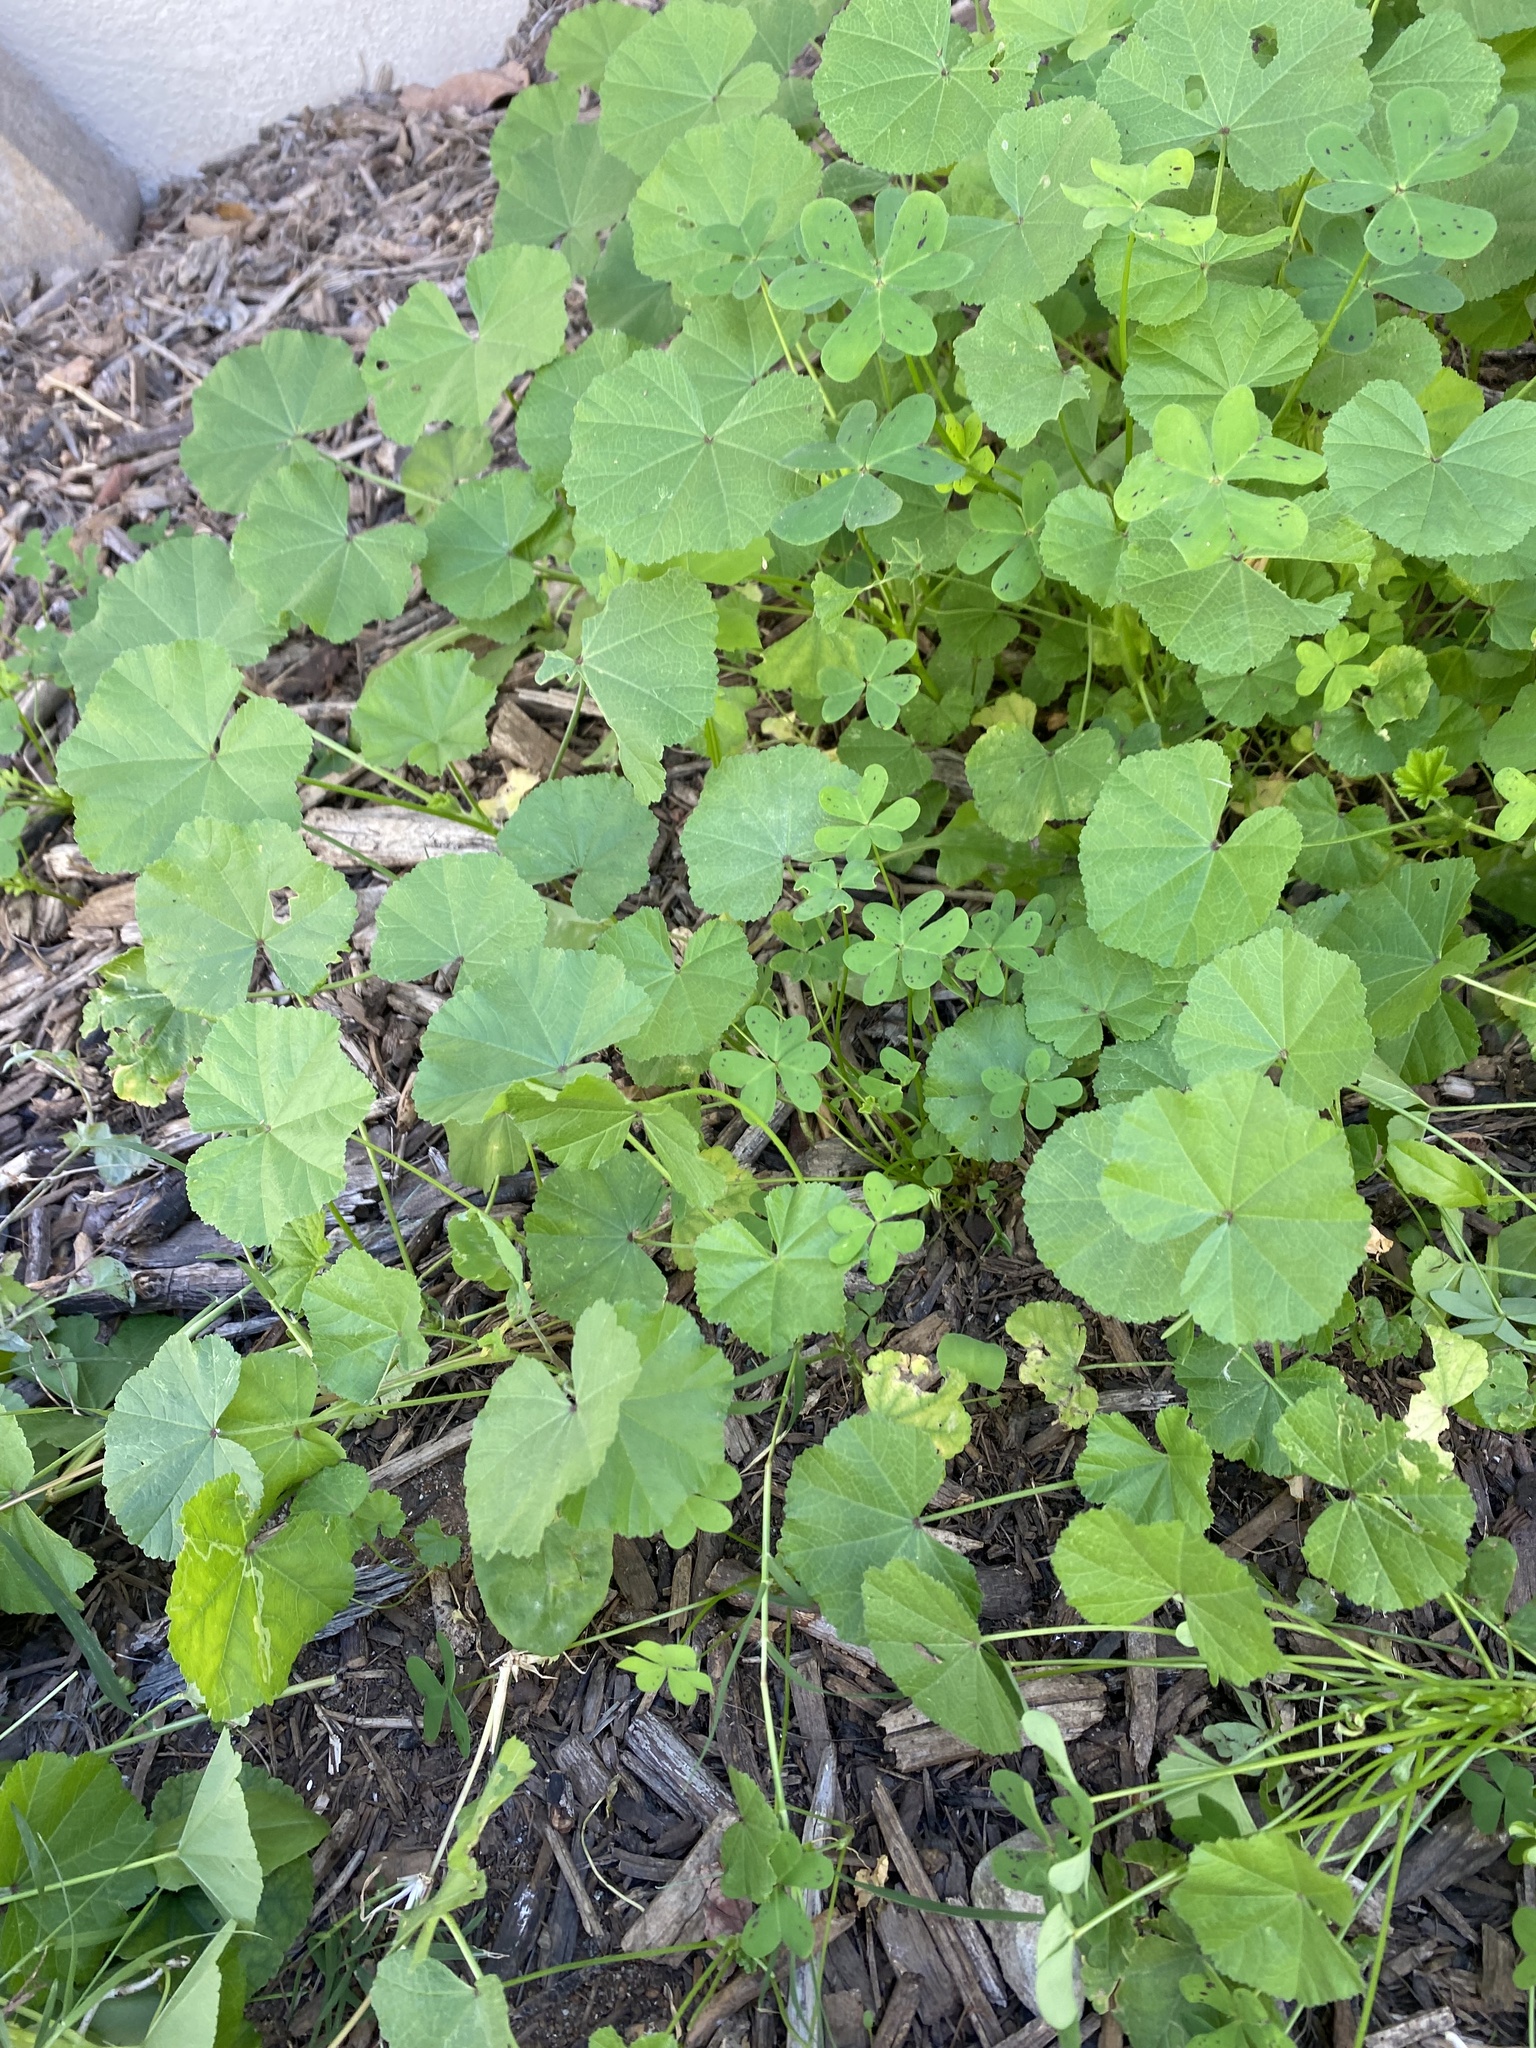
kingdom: Plantae
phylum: Tracheophyta
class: Magnoliopsida
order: Malvales
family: Malvaceae
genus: Malva
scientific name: Malva
